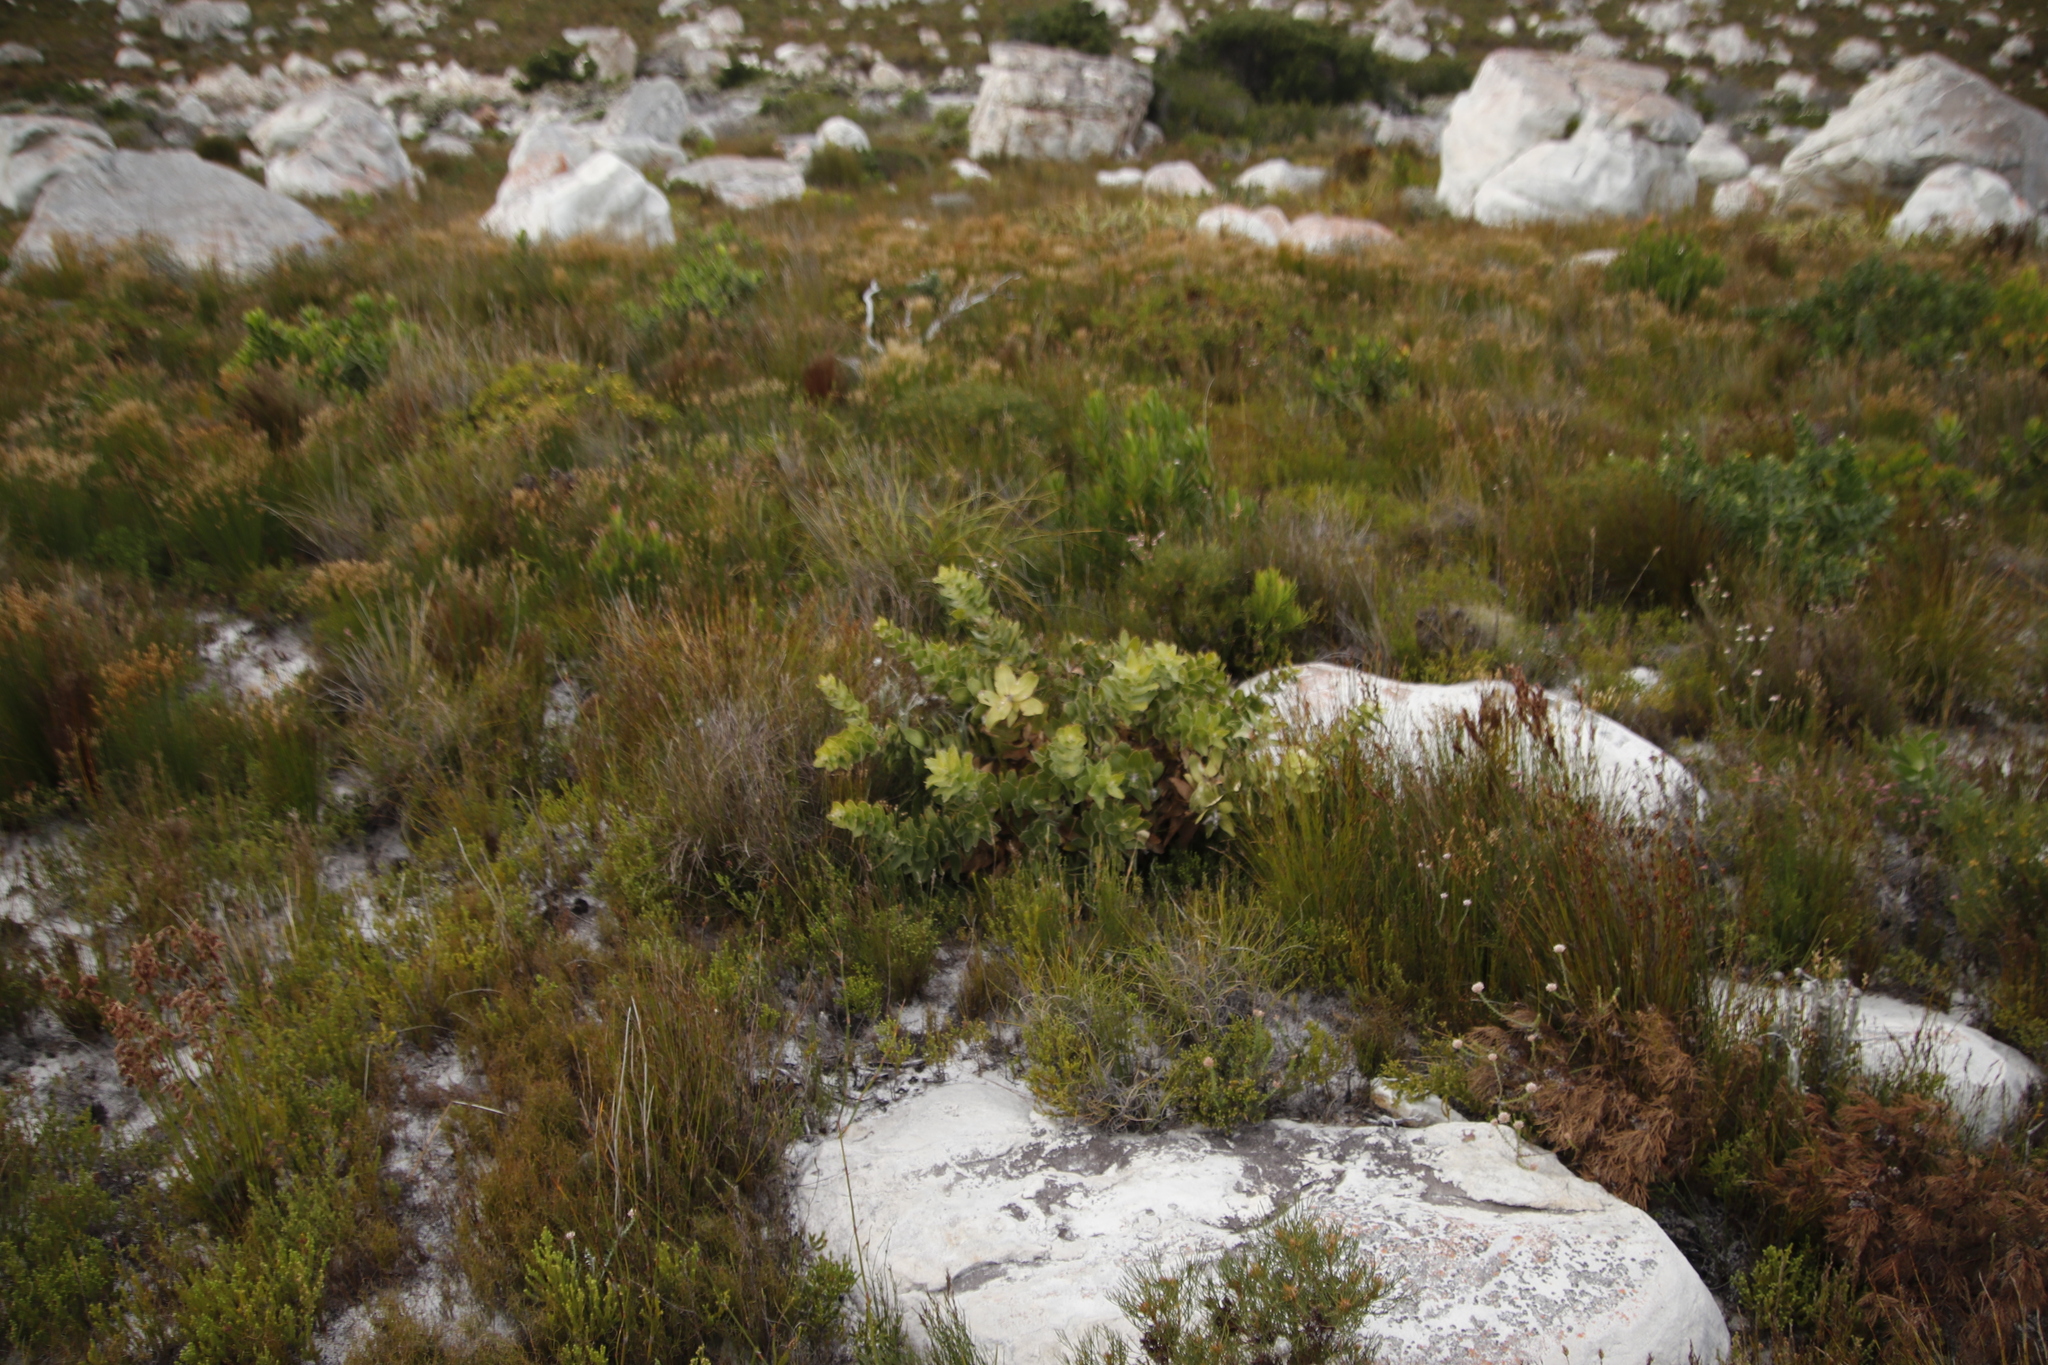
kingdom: Plantae
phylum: Tracheophyta
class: Magnoliopsida
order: Proteales
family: Proteaceae
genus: Leucospermum
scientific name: Leucospermum cordifolium
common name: Red pincushion-protea
